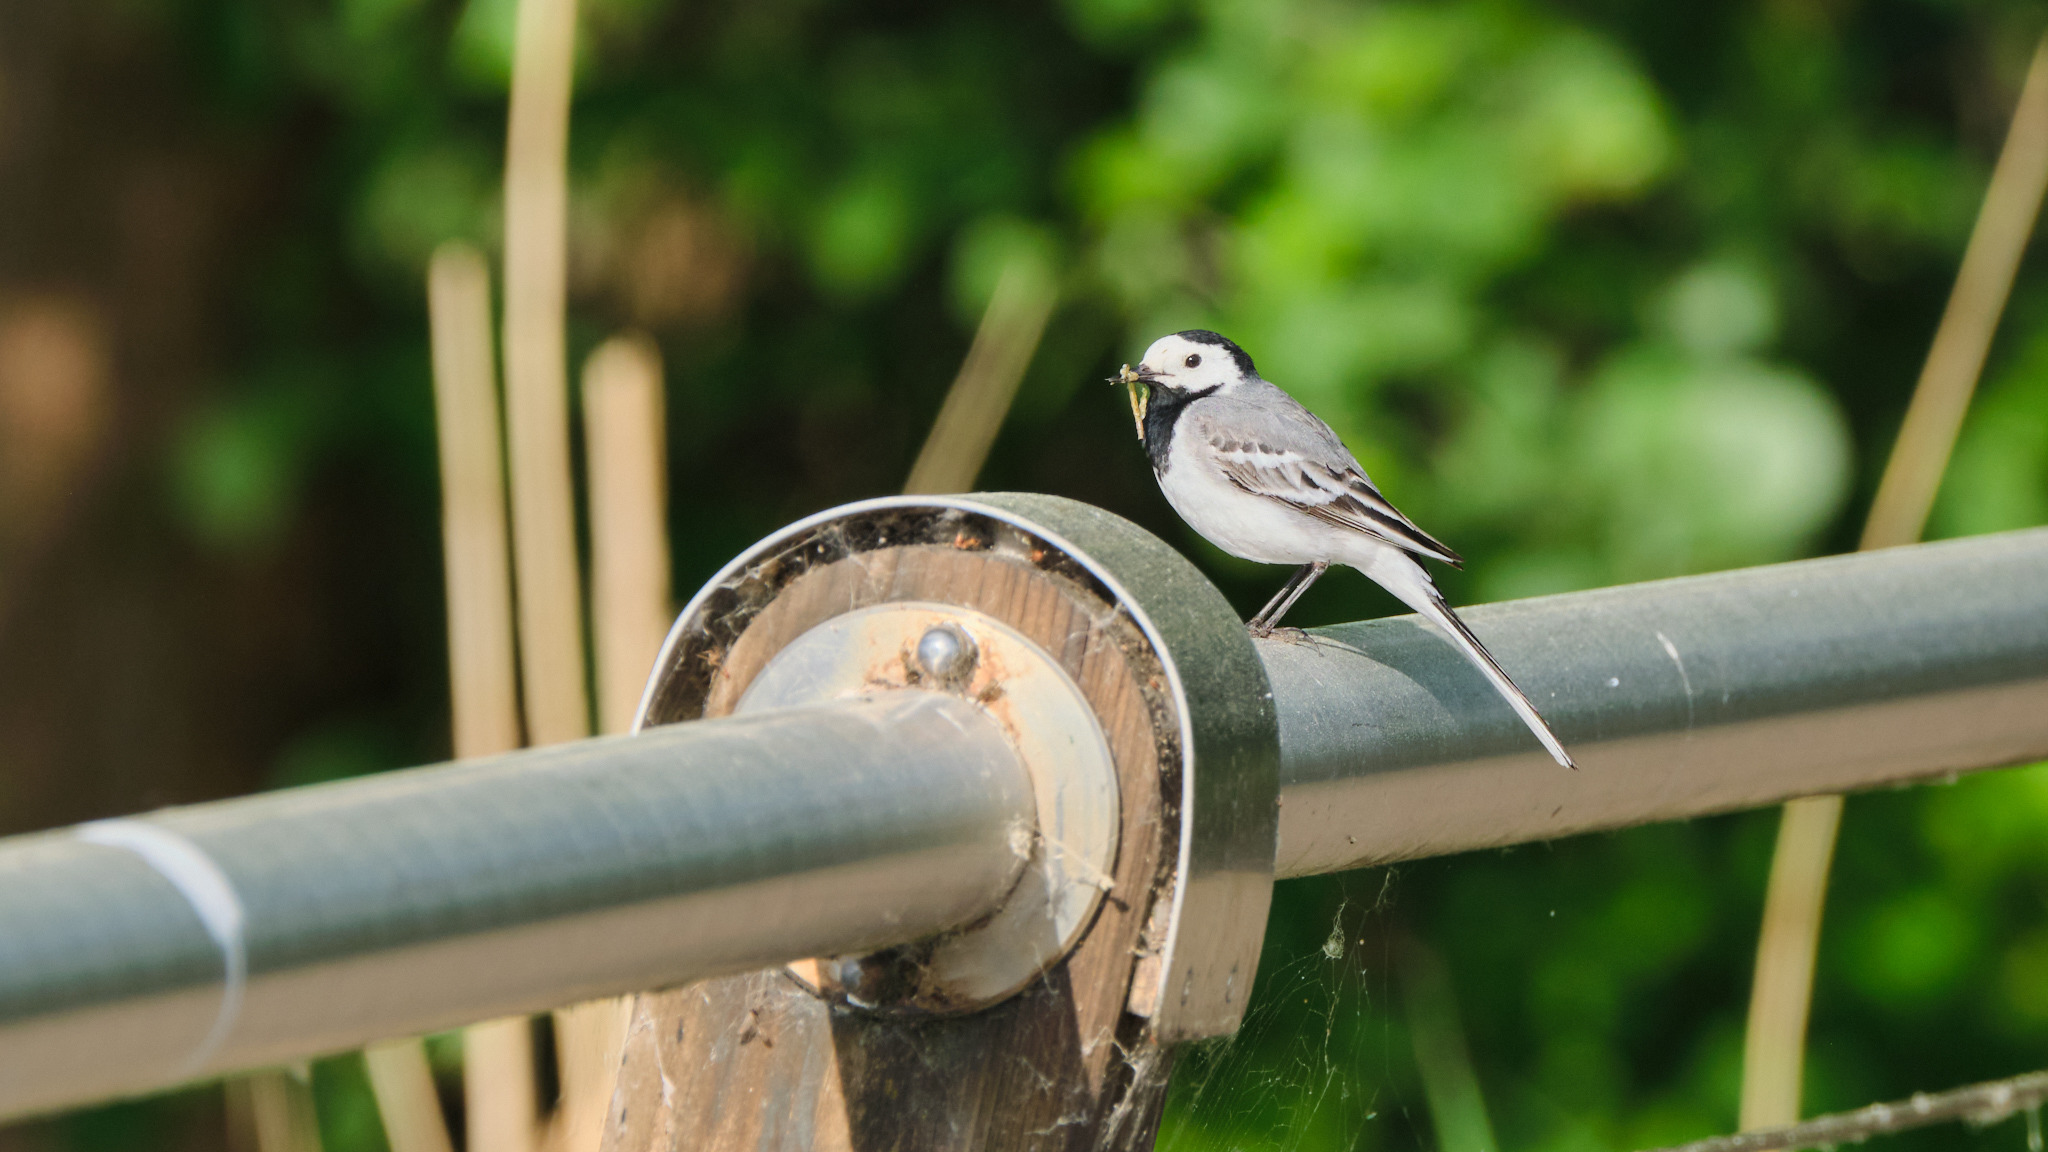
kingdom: Animalia
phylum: Chordata
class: Aves
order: Passeriformes
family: Motacillidae
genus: Motacilla
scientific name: Motacilla alba
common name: White wagtail
